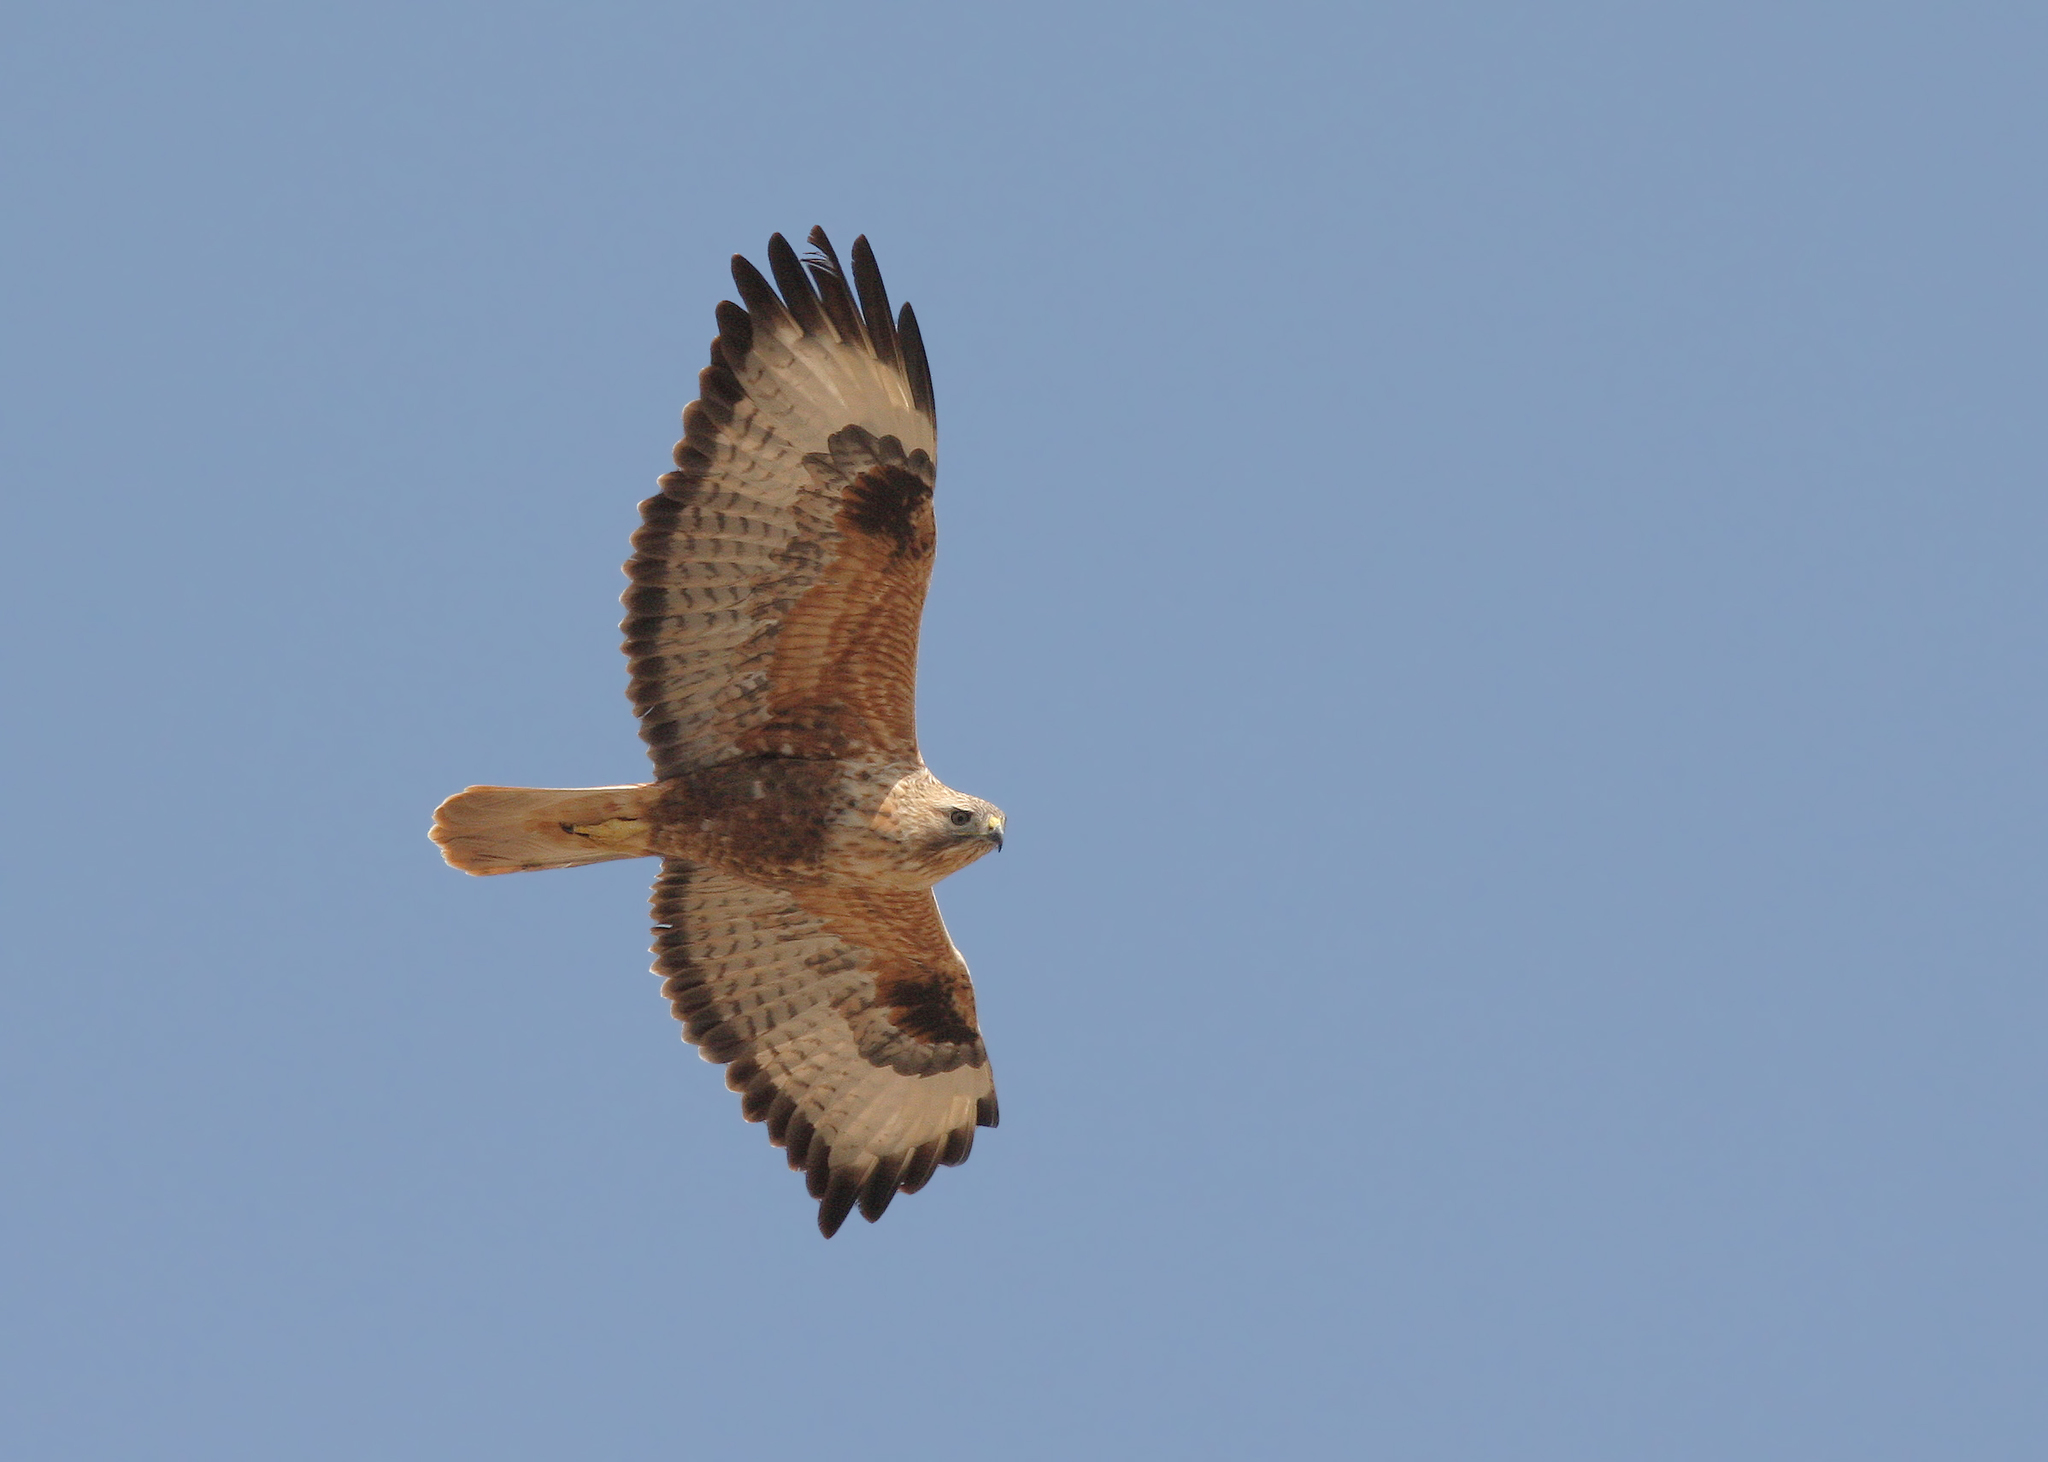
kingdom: Animalia
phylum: Chordata
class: Aves
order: Accipitriformes
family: Accipitridae
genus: Buteo
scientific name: Buteo rufinus
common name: Long-legged buzzard
